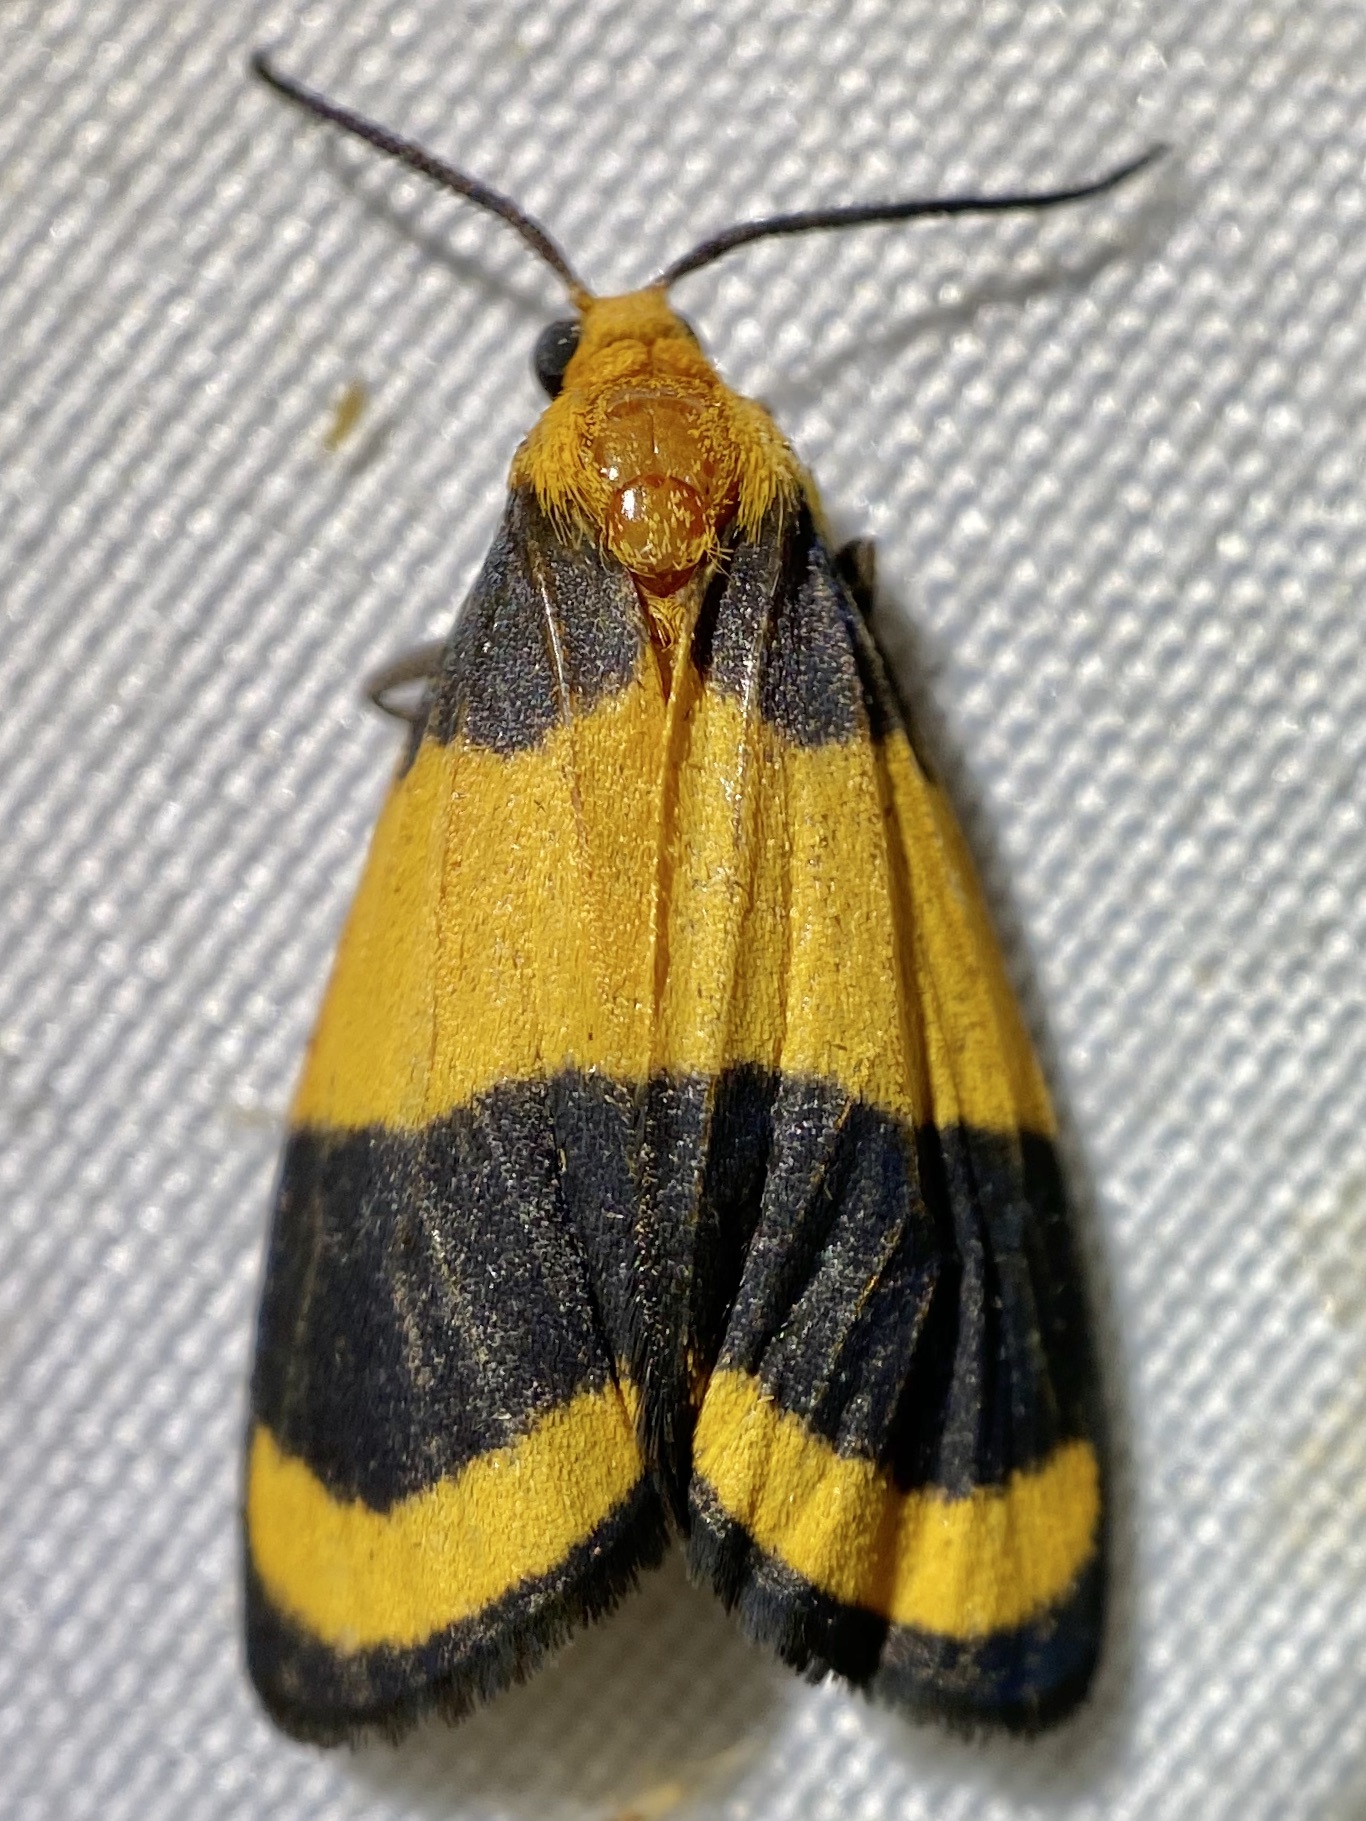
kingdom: Animalia
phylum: Arthropoda
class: Insecta
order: Lepidoptera
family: Erebidae
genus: Eudesmia
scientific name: Eudesmia arida
